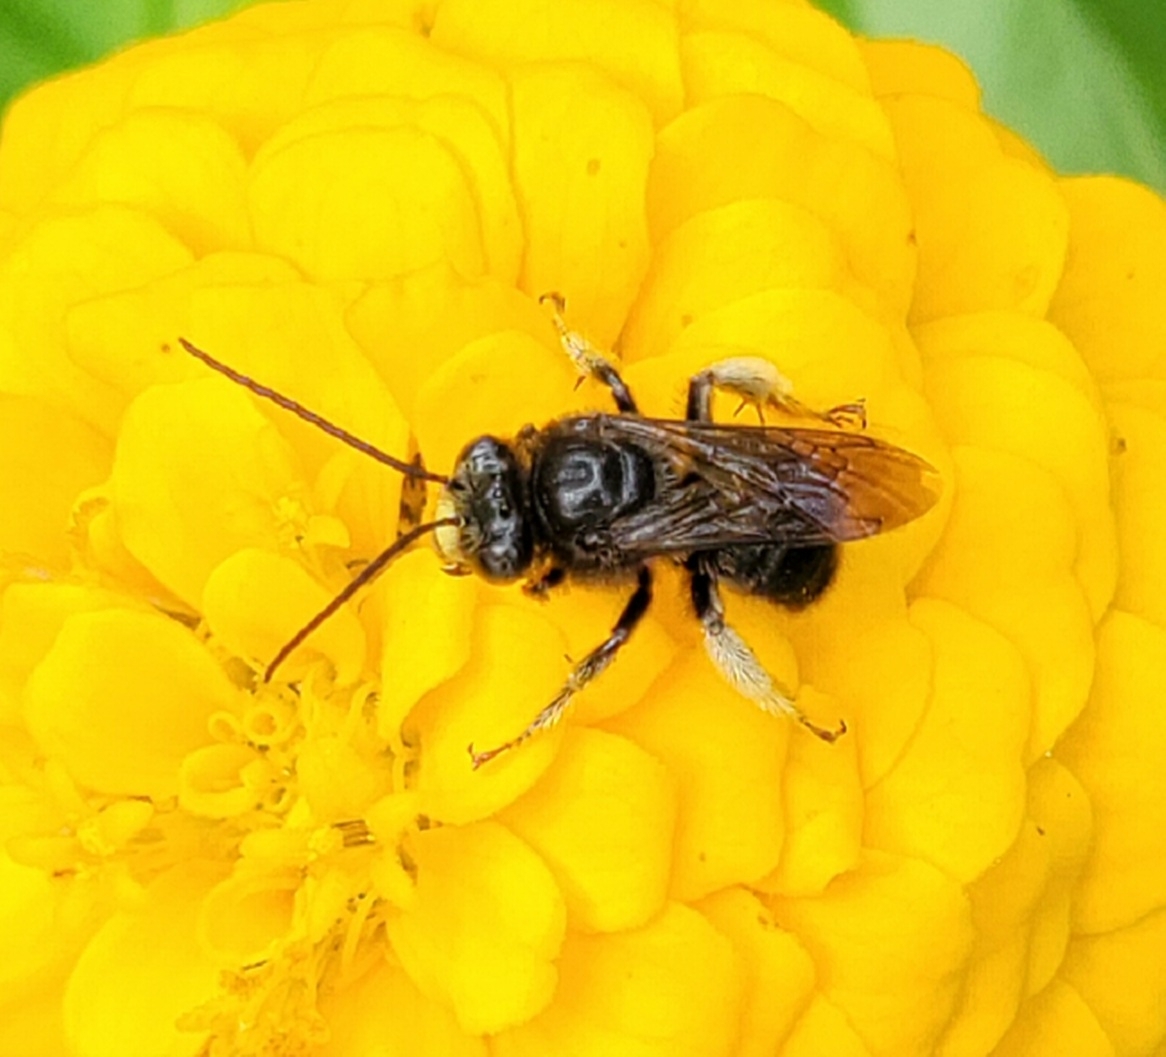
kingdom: Animalia
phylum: Arthropoda
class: Insecta
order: Hymenoptera
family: Apidae
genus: Melissodes
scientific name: Melissodes bimaculatus
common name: Two-spotted long-horned bee
